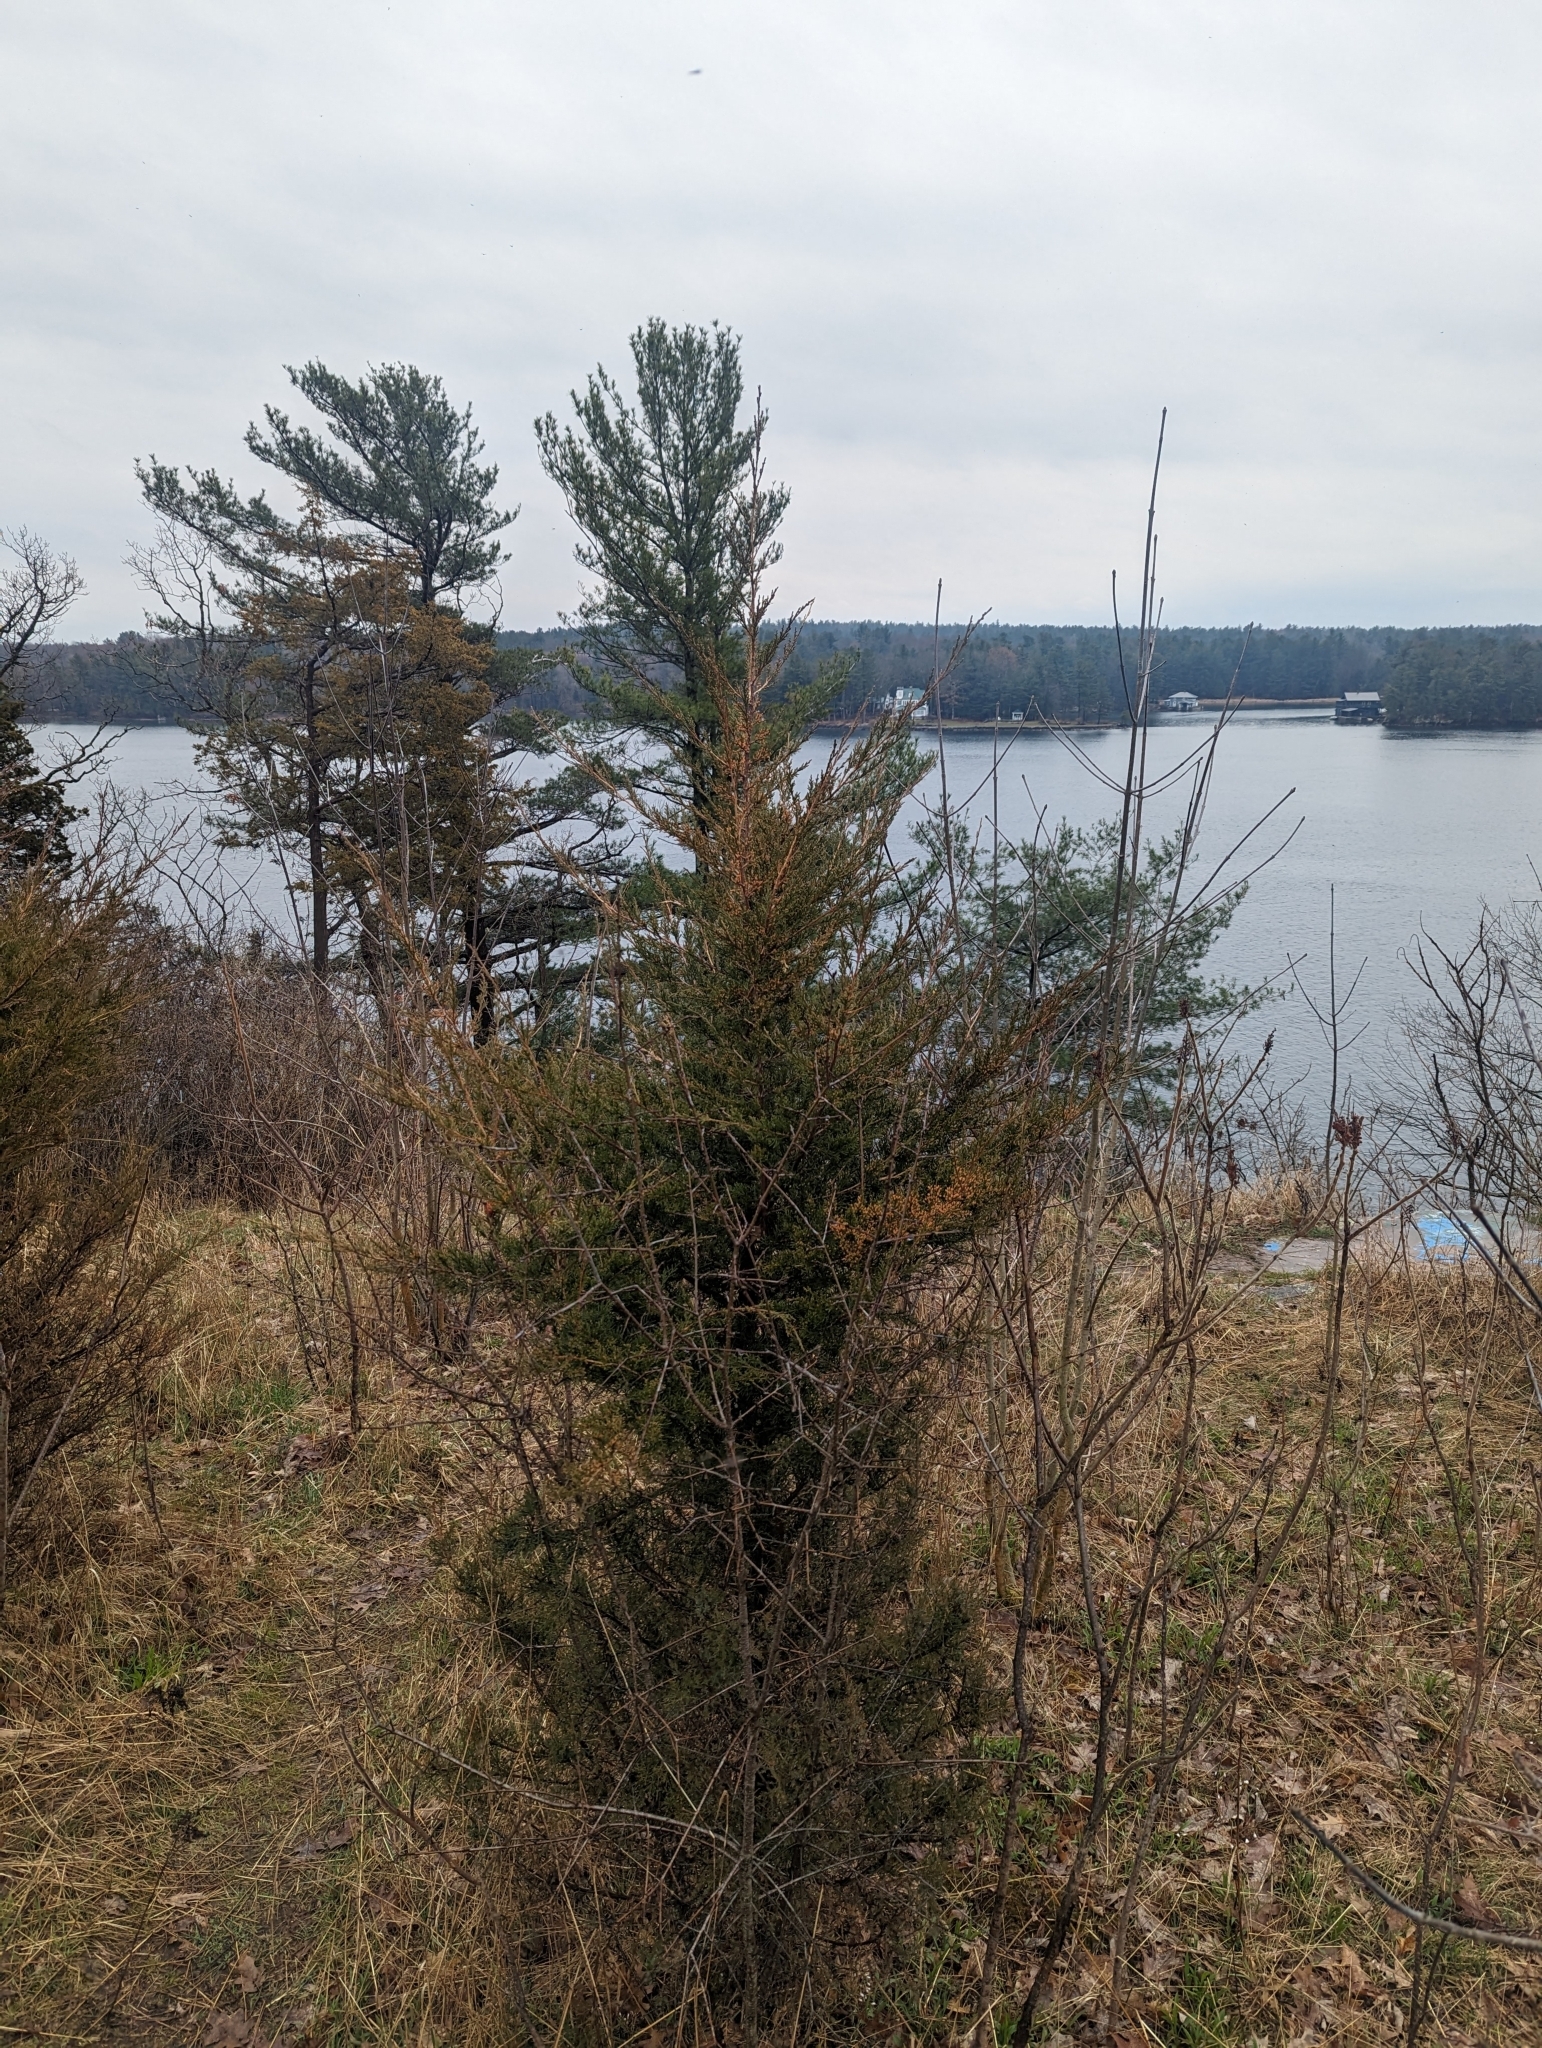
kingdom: Plantae
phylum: Tracheophyta
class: Pinopsida
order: Pinales
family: Cupressaceae
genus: Juniperus
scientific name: Juniperus virginiana
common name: Red juniper
